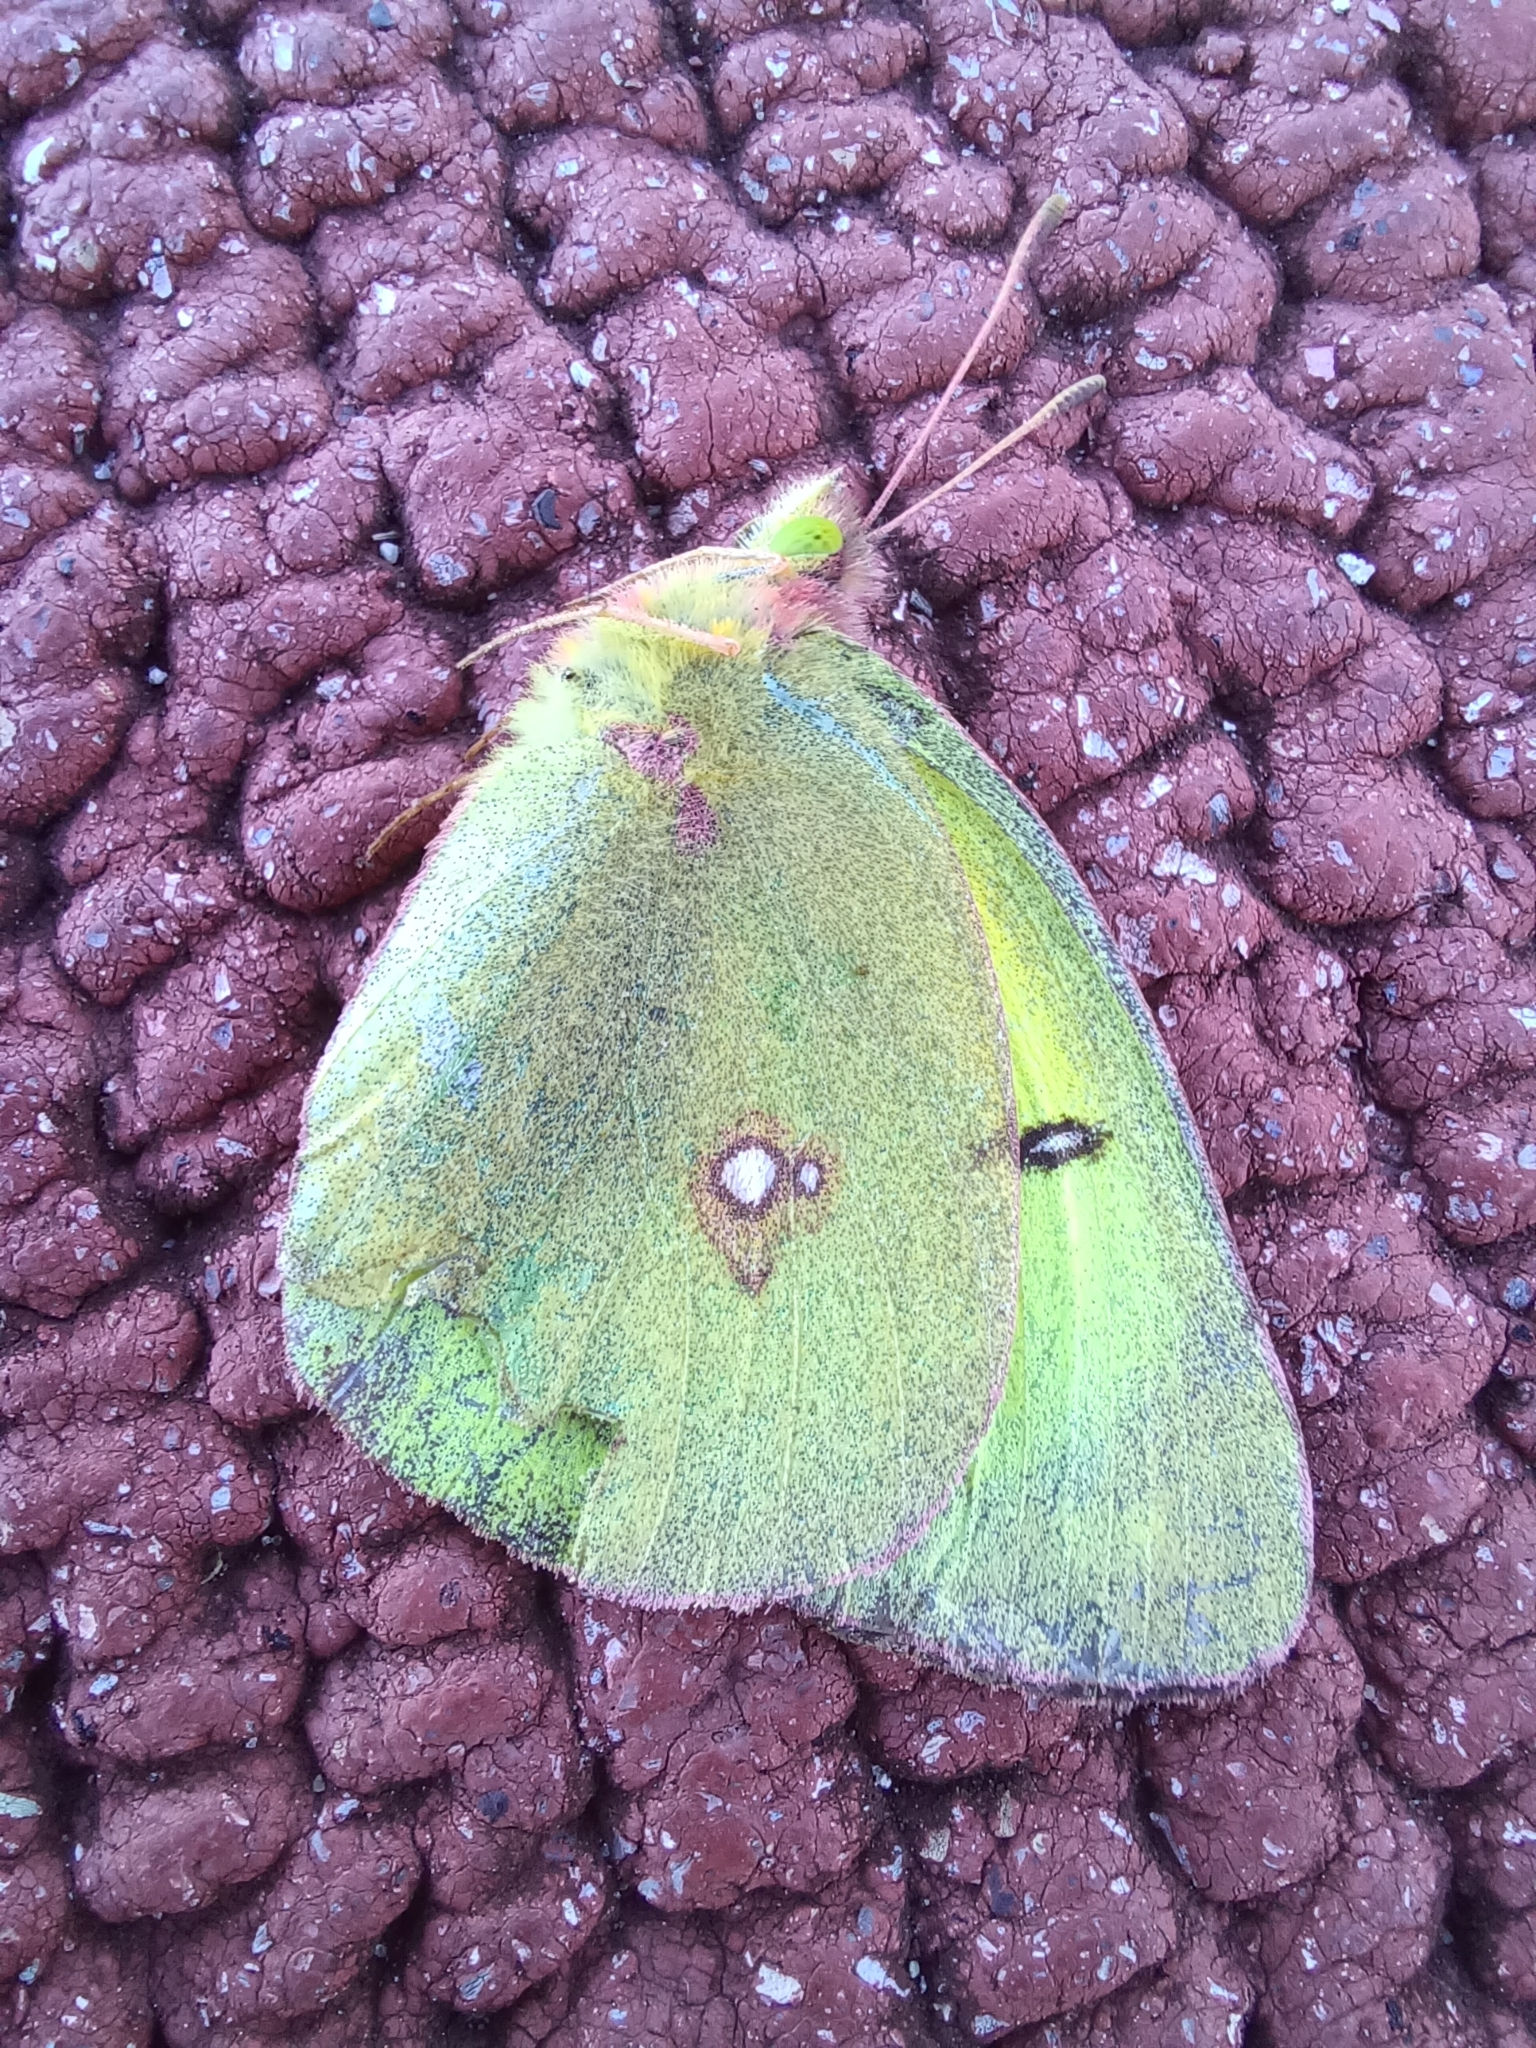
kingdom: Animalia
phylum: Arthropoda
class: Insecta
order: Lepidoptera
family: Pieridae
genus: Colias
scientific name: Colias philodice
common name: Clouded sulphur
